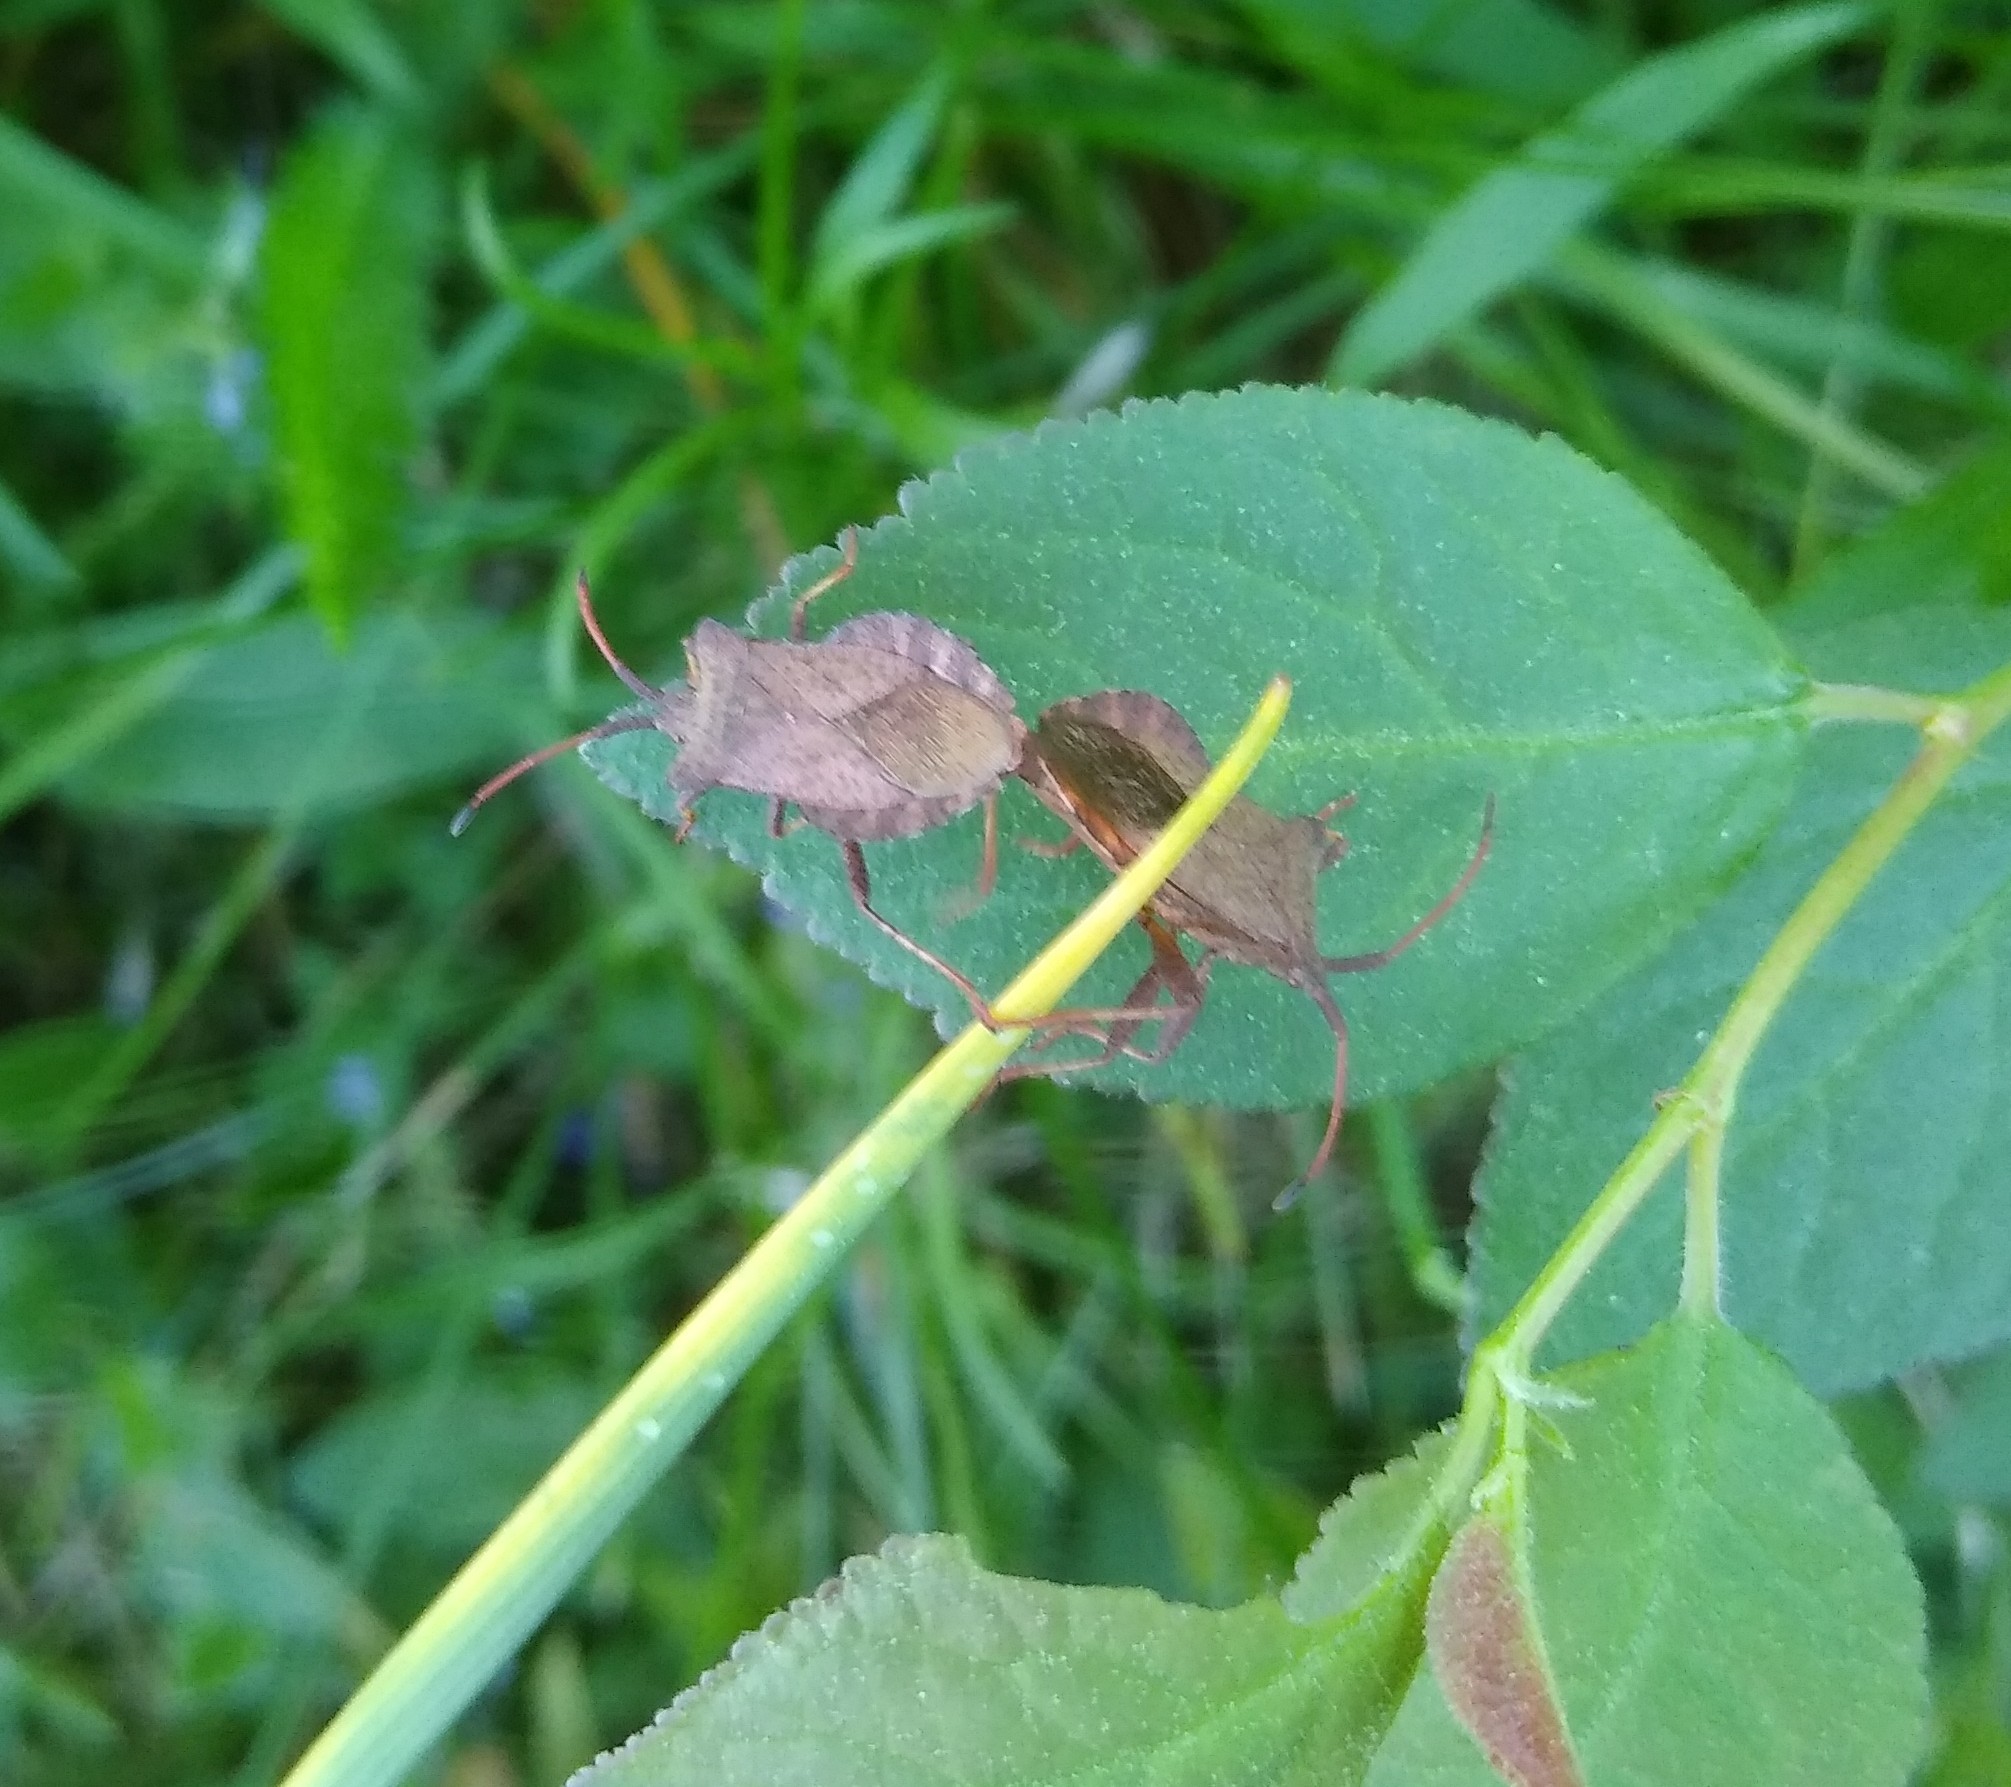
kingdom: Animalia
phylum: Arthropoda
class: Insecta
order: Hemiptera
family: Coreidae
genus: Coreus
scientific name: Coreus marginatus
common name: Dock bug
